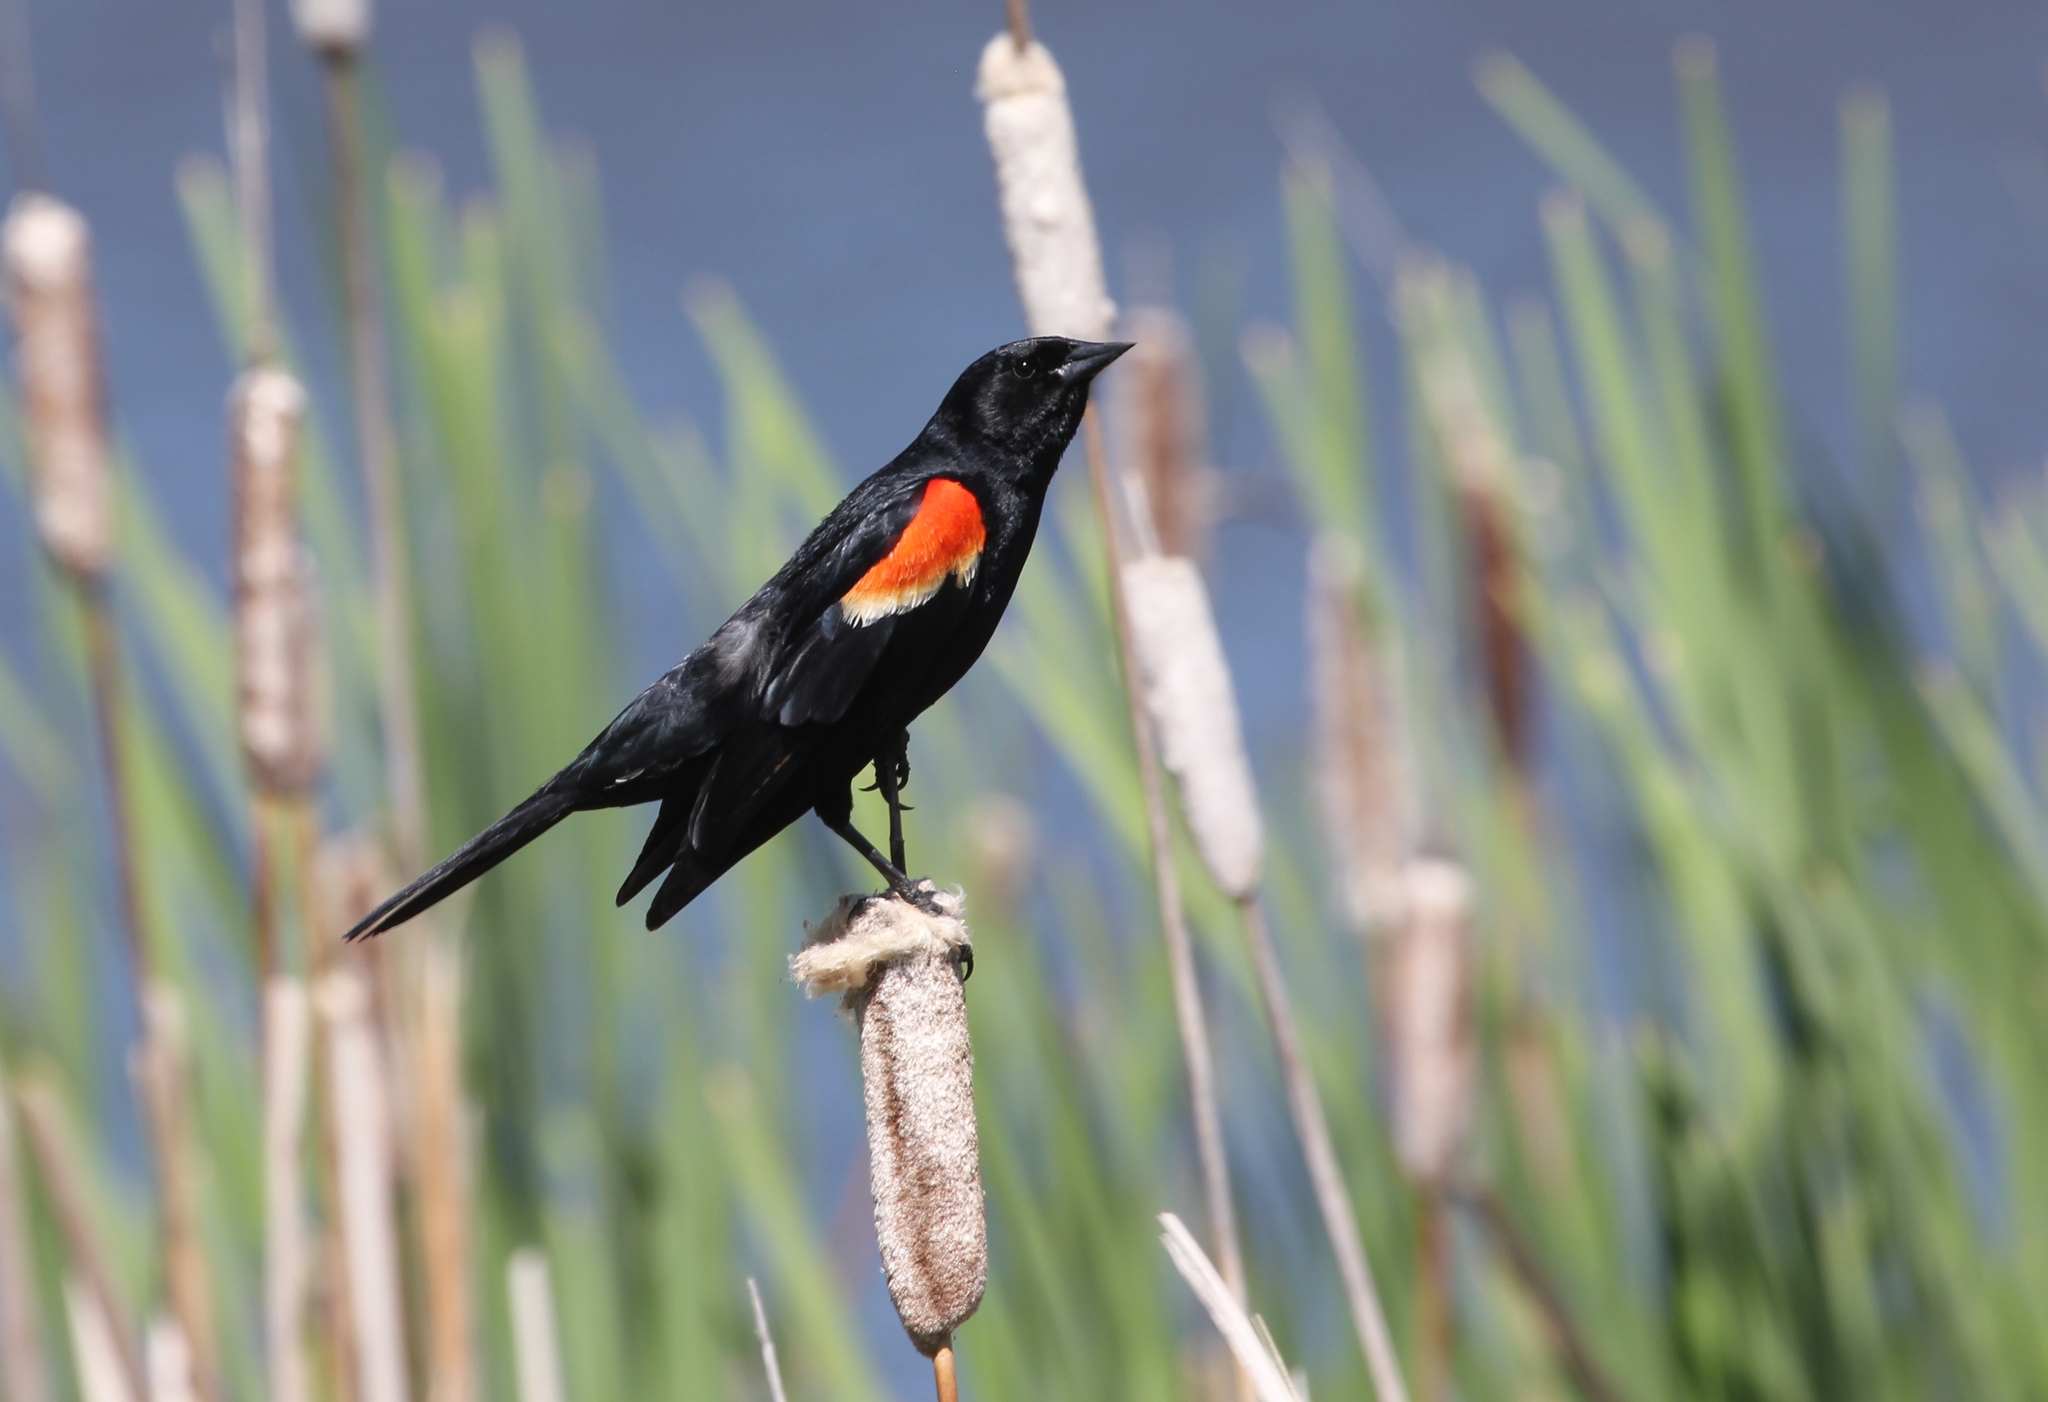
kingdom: Animalia
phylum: Chordata
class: Aves
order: Passeriformes
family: Icteridae
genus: Agelaius
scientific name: Agelaius phoeniceus
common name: Red-winged blackbird
